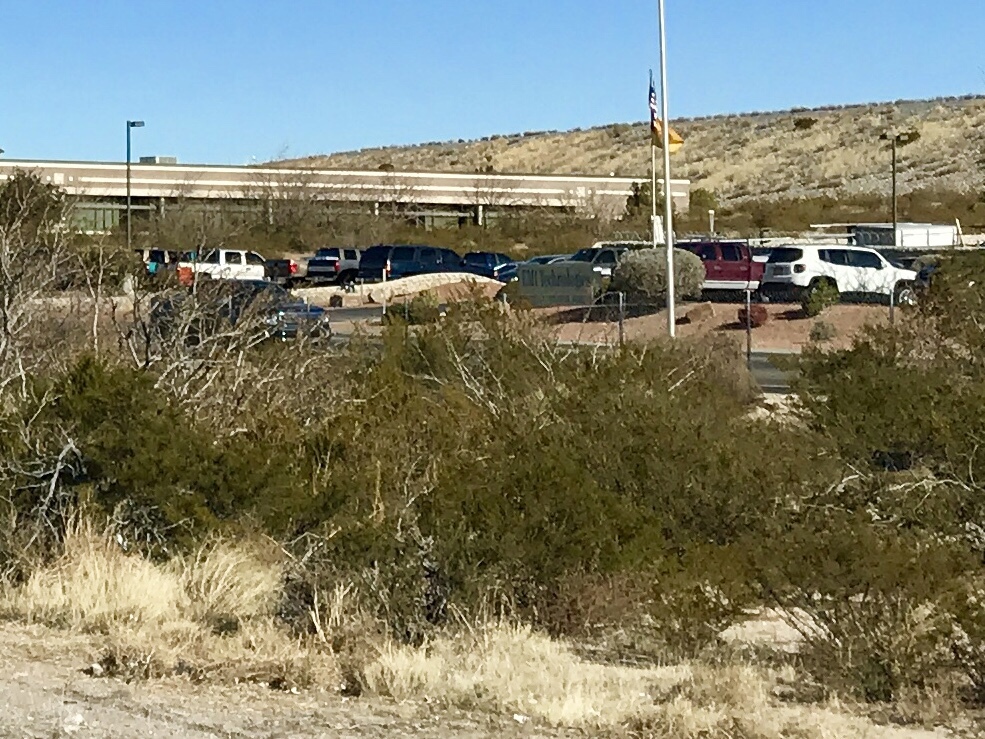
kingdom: Plantae
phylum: Tracheophyta
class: Magnoliopsida
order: Zygophyllales
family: Zygophyllaceae
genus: Larrea
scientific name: Larrea tridentata
